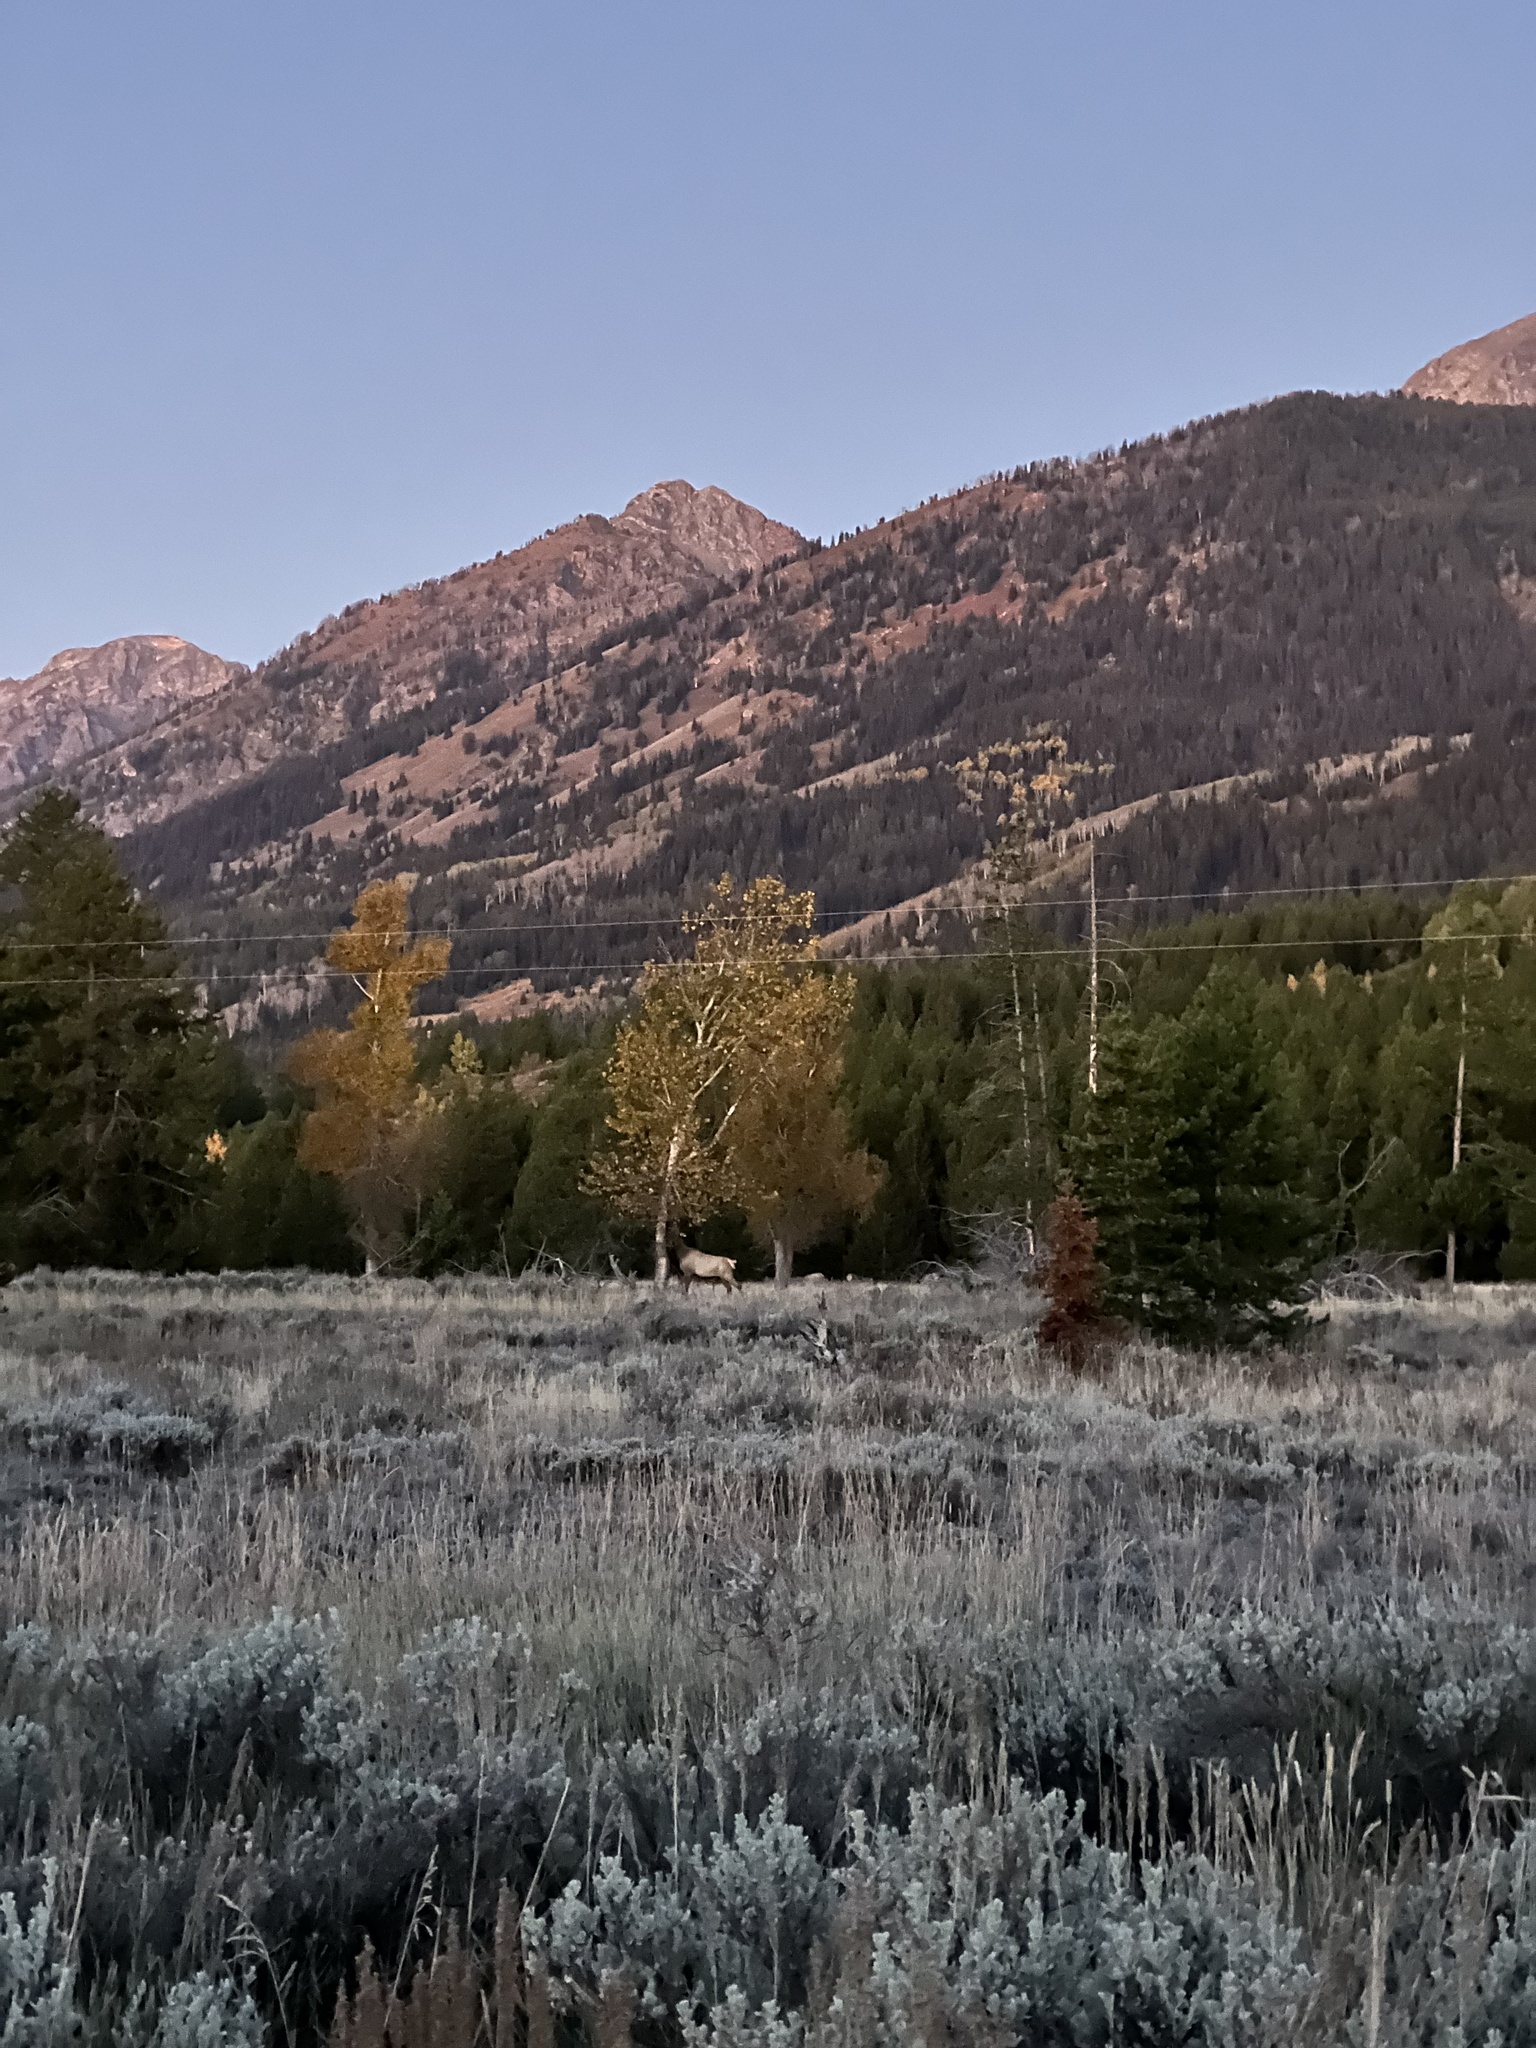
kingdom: Animalia
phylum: Chordata
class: Mammalia
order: Artiodactyla
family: Cervidae
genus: Cervus
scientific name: Cervus elaphus
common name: Red deer
